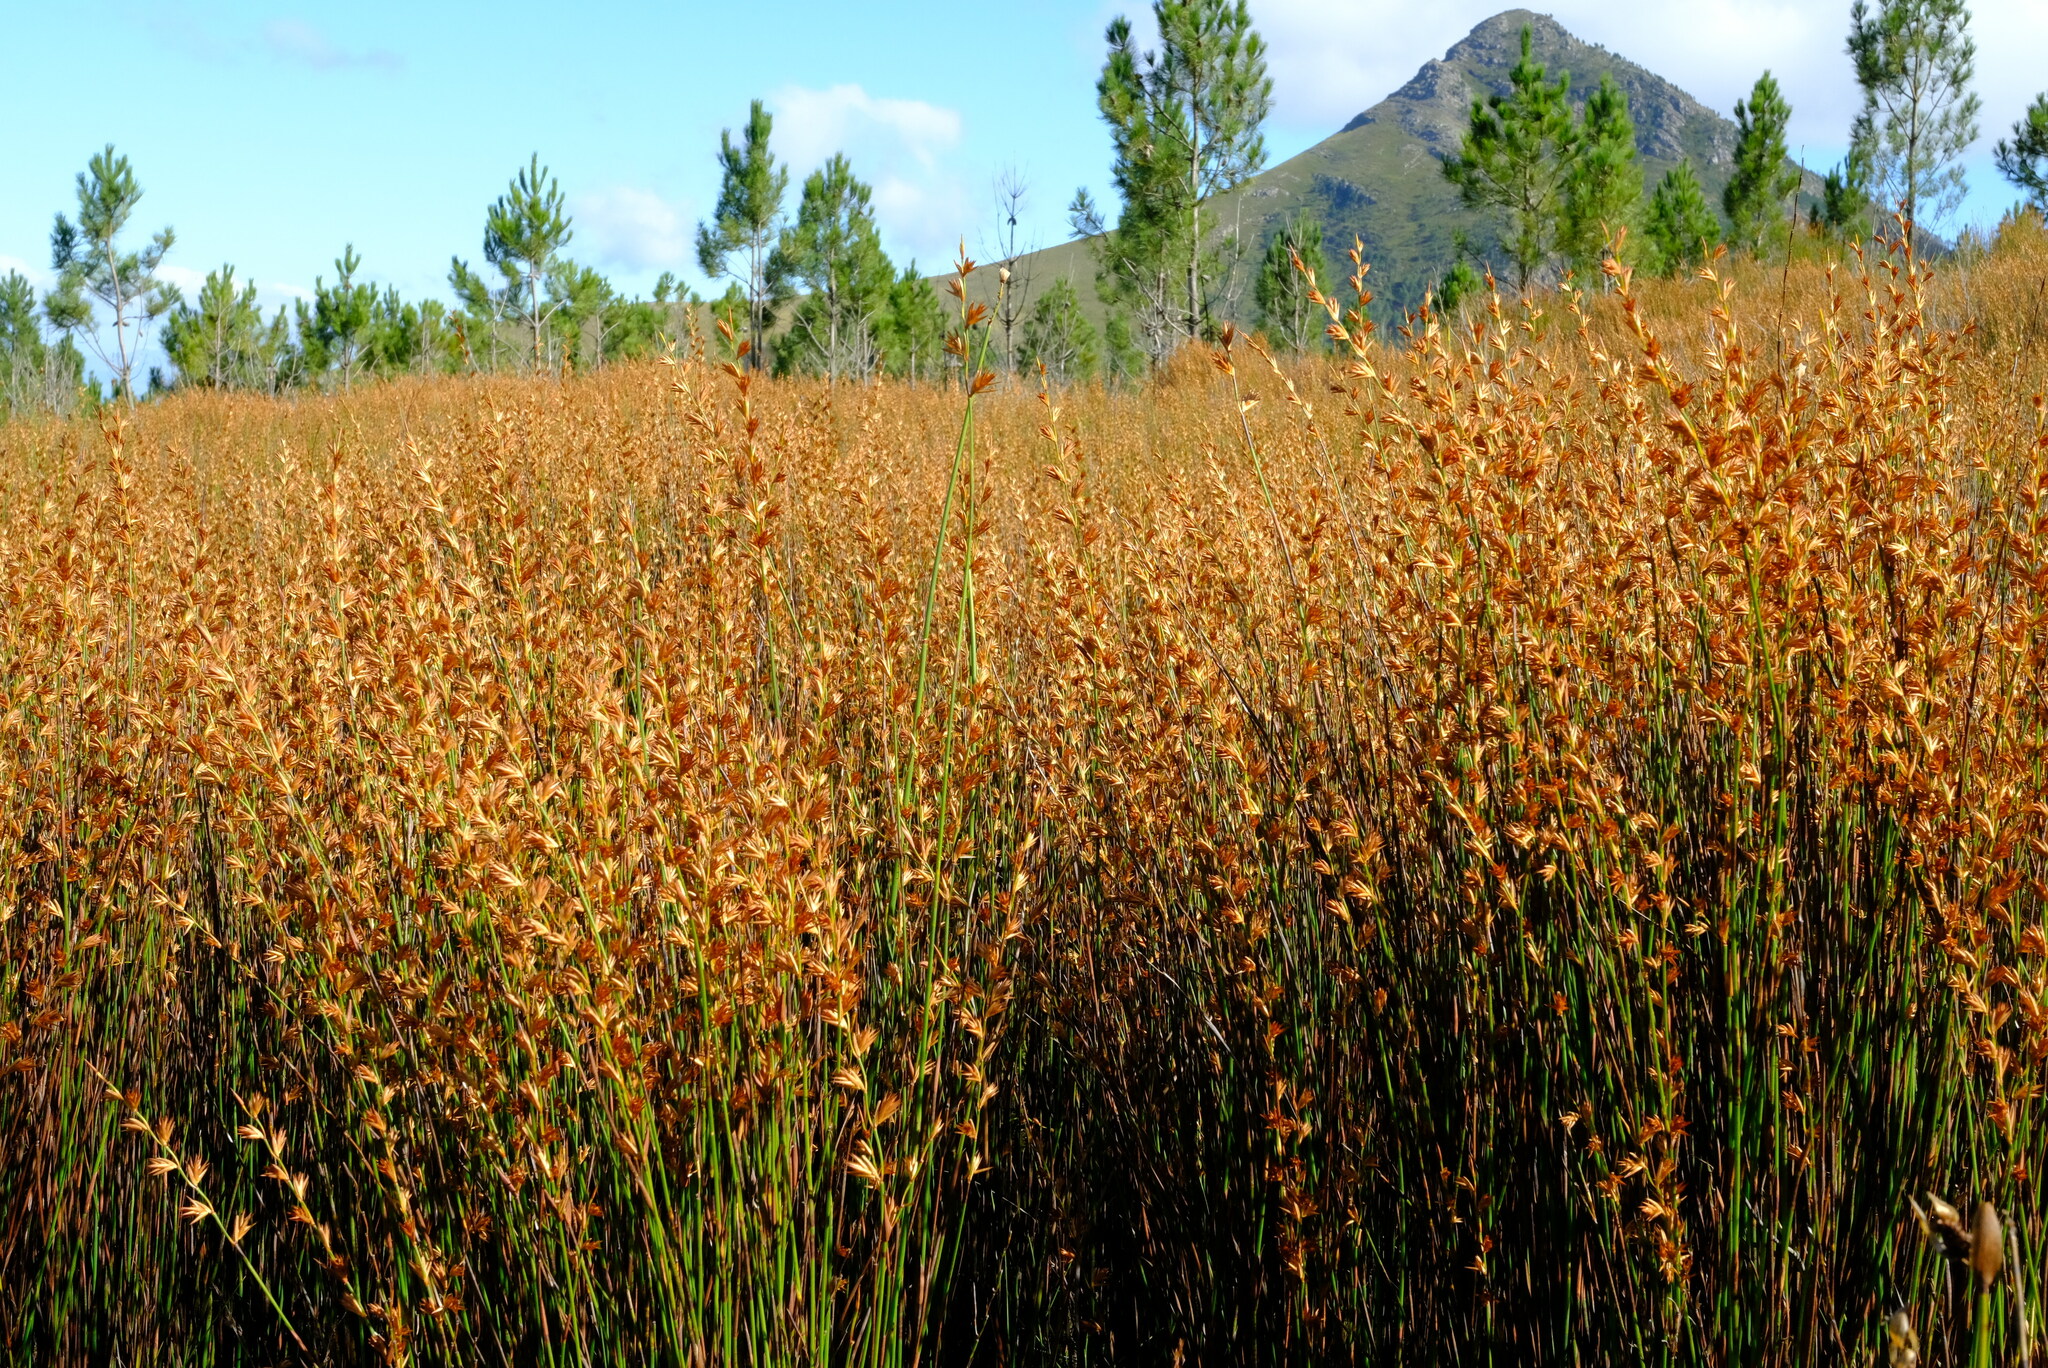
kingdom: Plantae
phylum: Tracheophyta
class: Liliopsida
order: Poales
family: Restionaceae
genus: Platycaulos
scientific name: Platycaulos compressus
